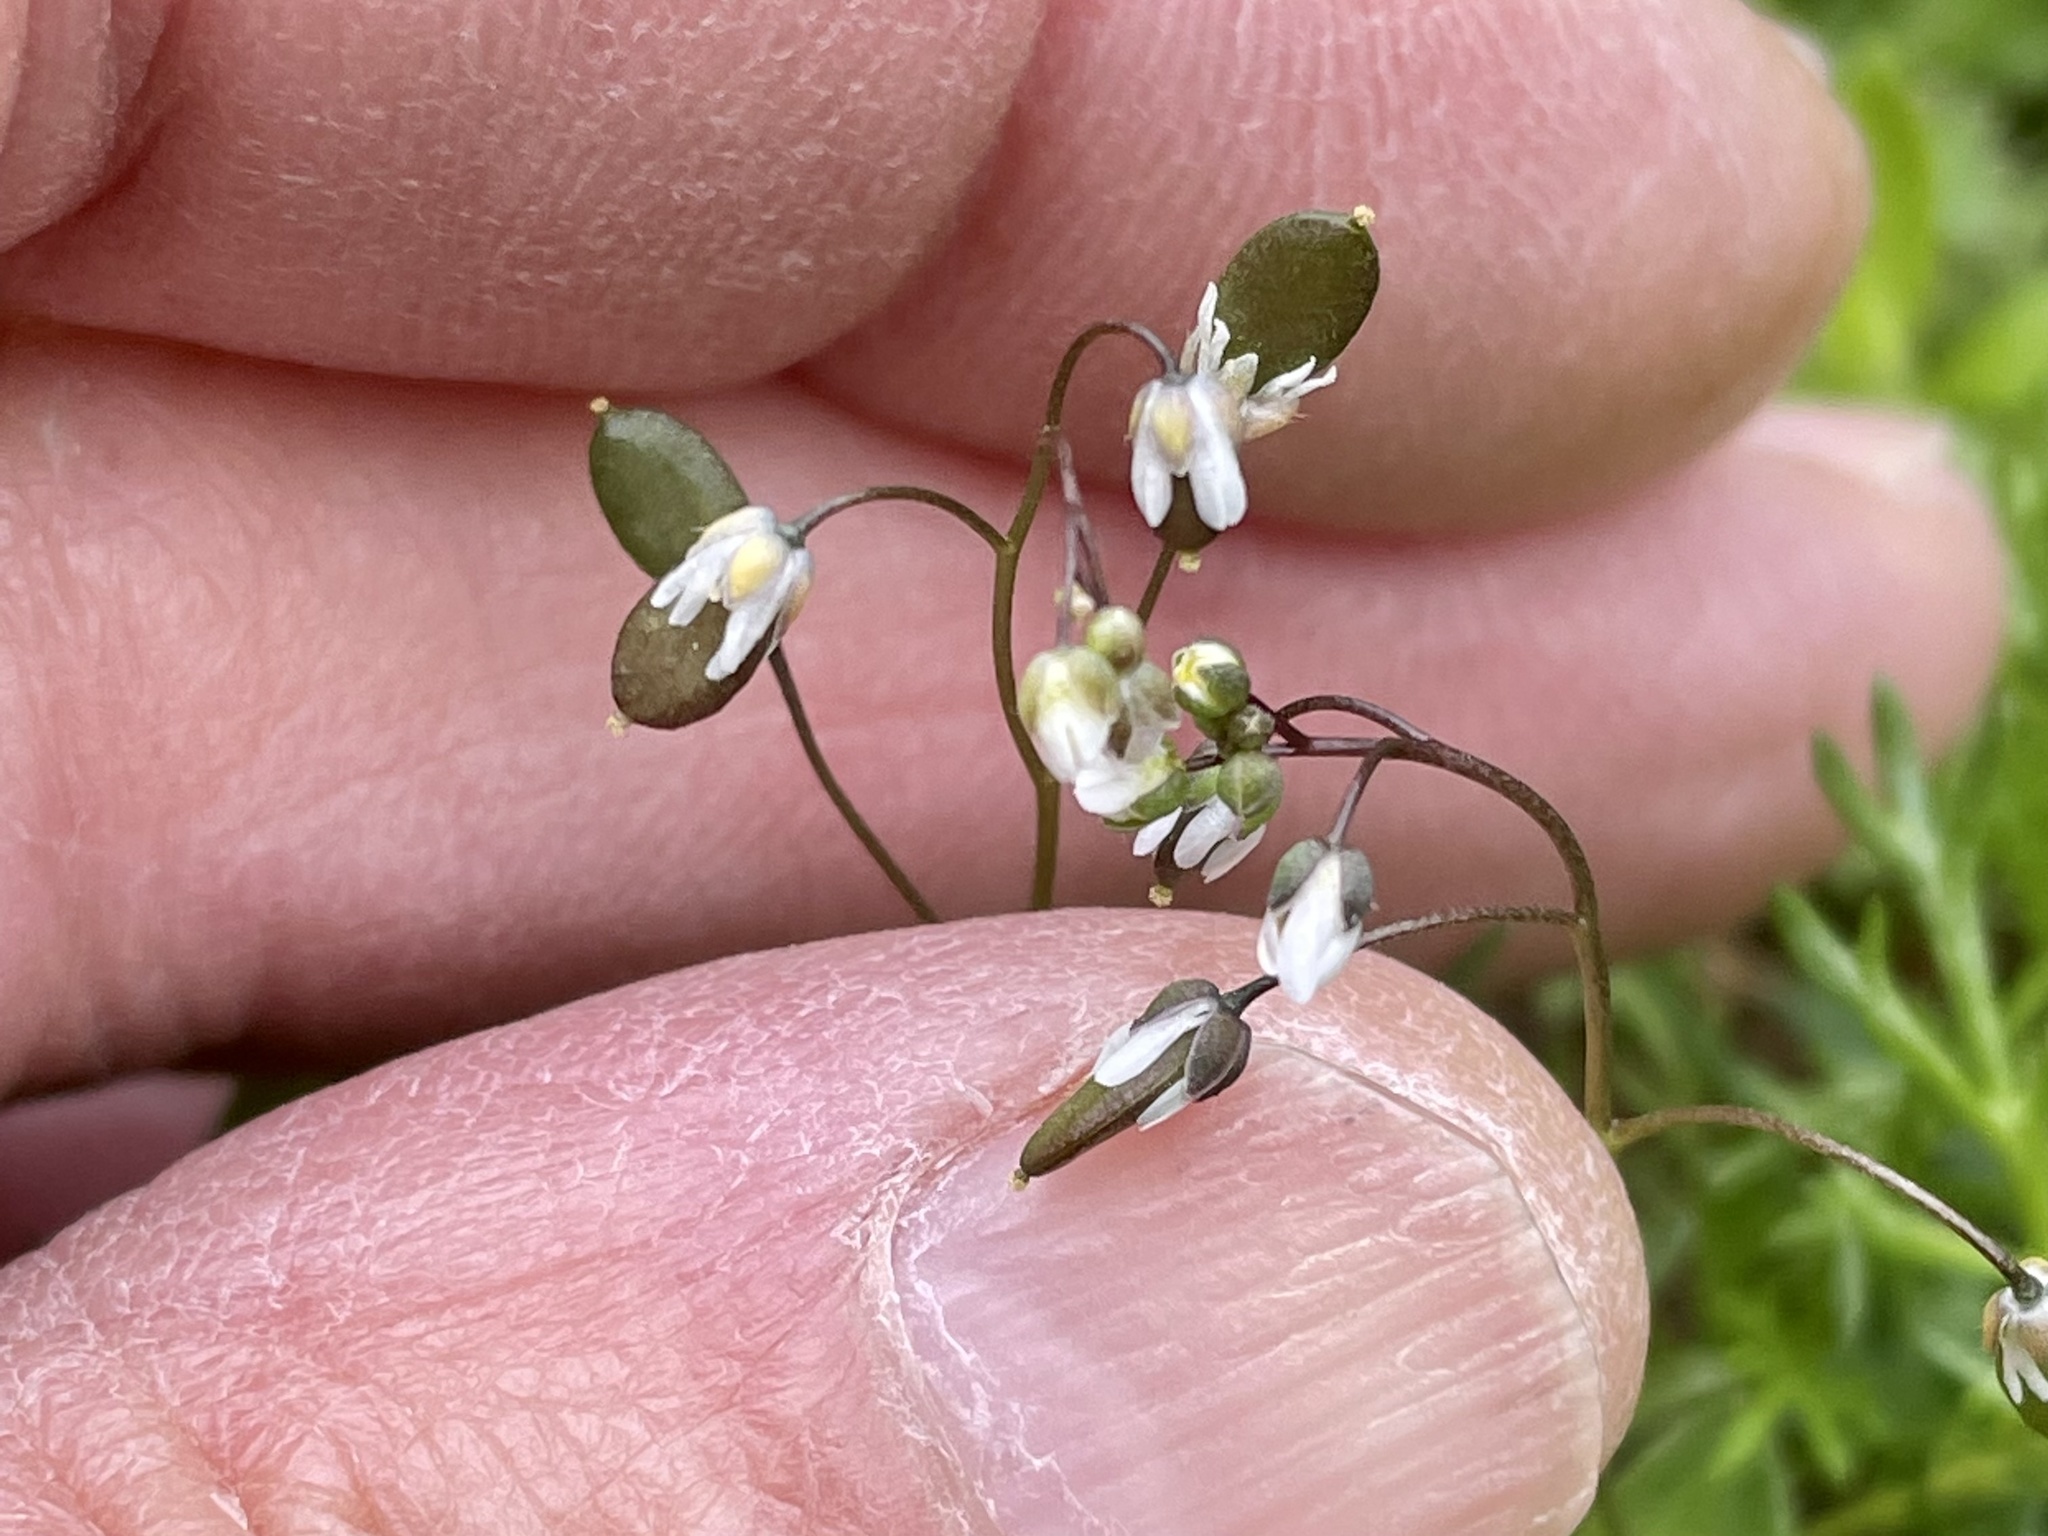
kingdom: Plantae
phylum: Tracheophyta
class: Magnoliopsida
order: Brassicales
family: Brassicaceae
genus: Draba
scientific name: Draba verna
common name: Spring draba
